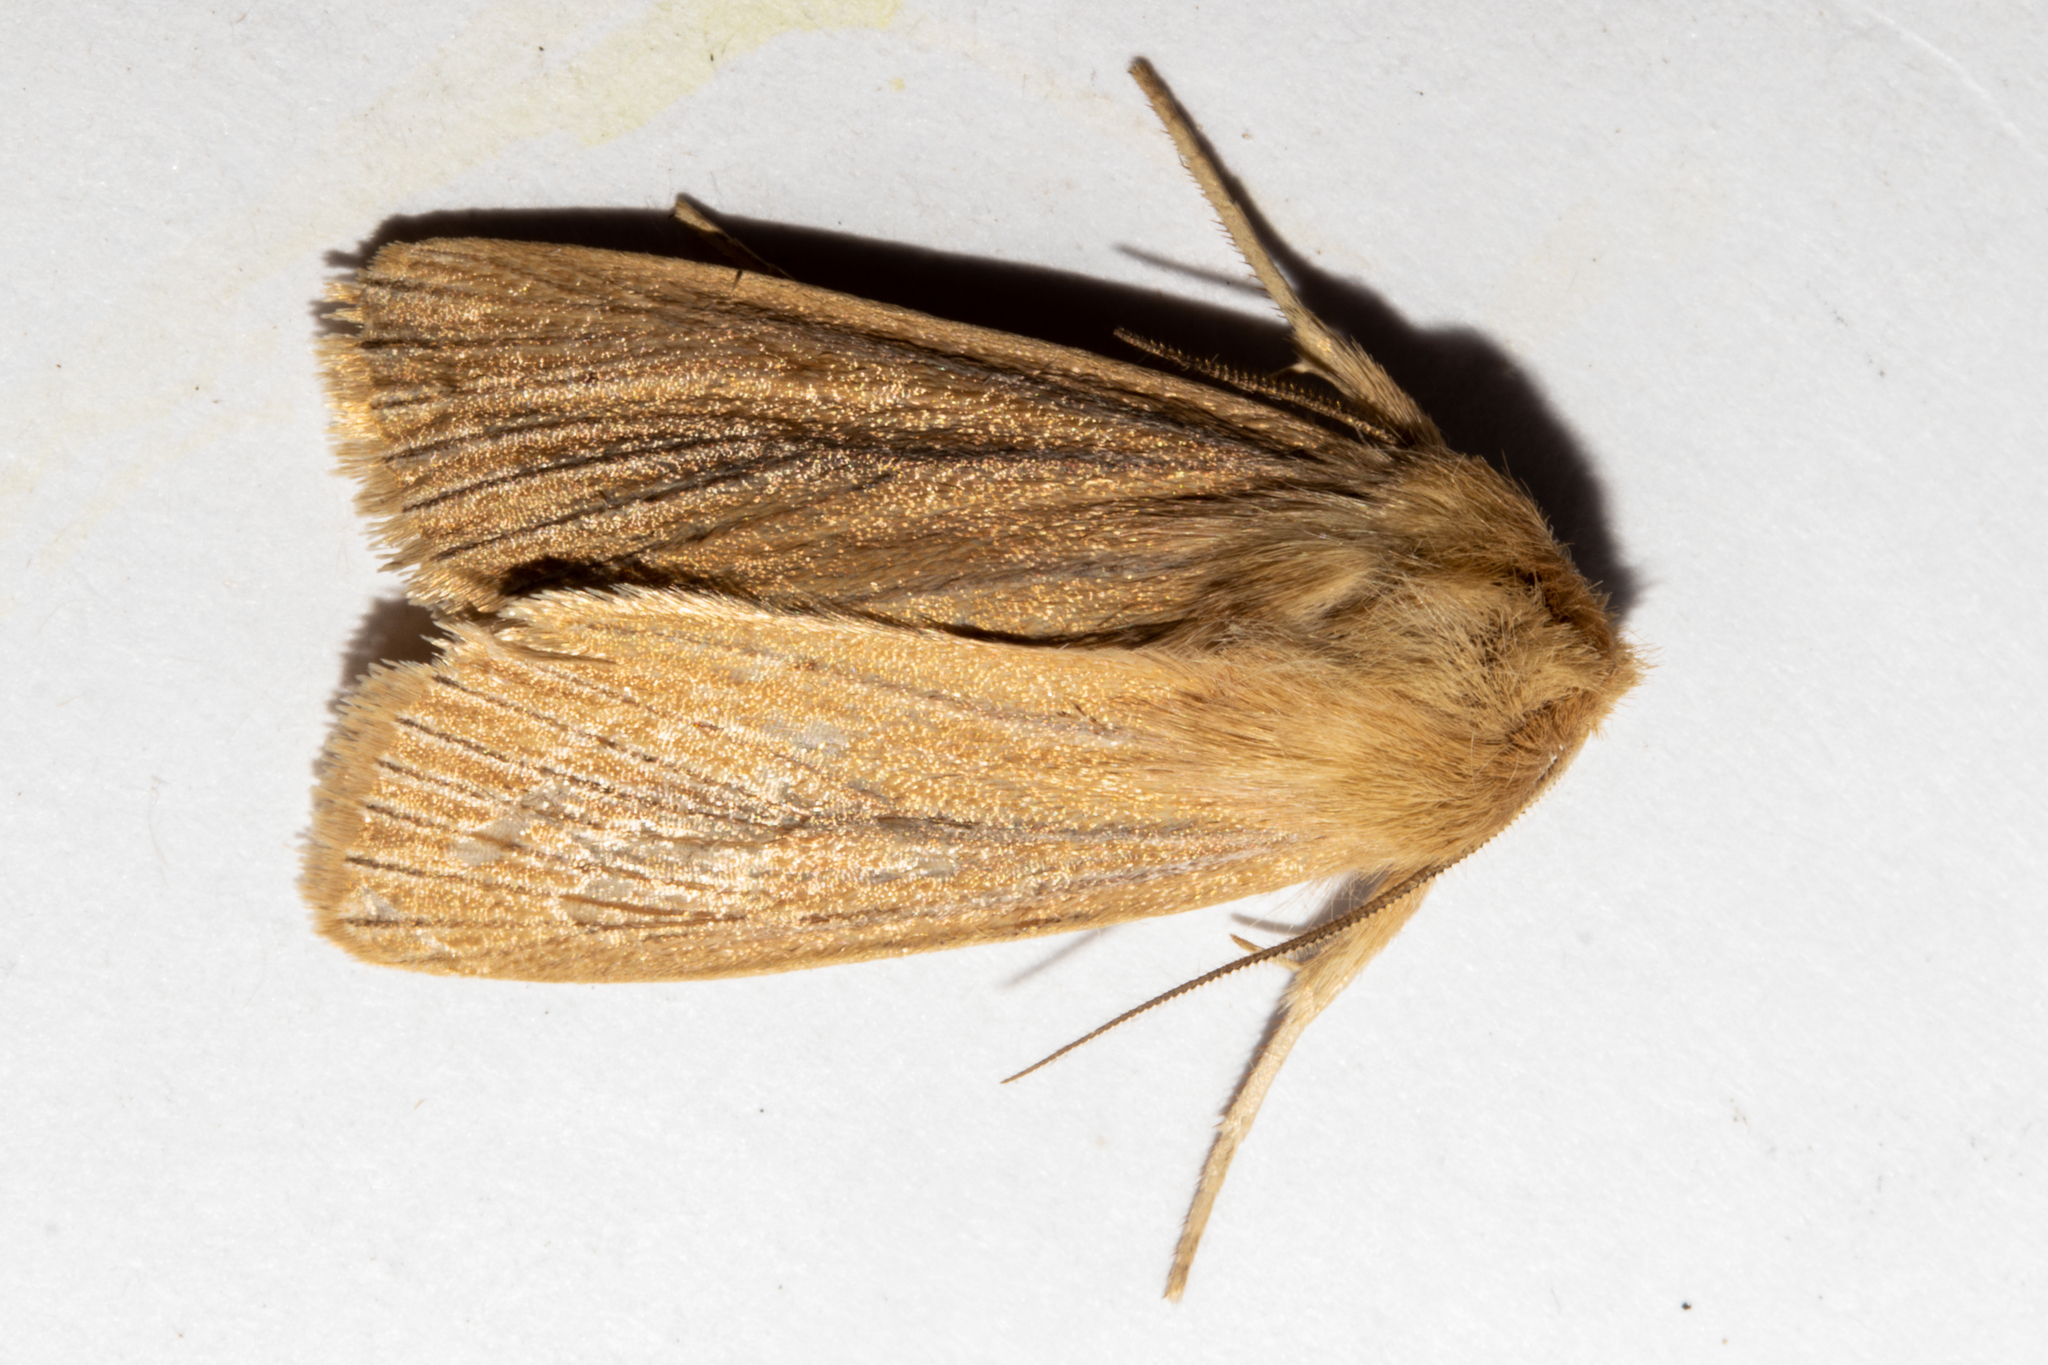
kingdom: Animalia
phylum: Arthropoda
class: Insecta
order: Lepidoptera
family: Noctuidae
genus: Ichneutica
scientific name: Ichneutica
